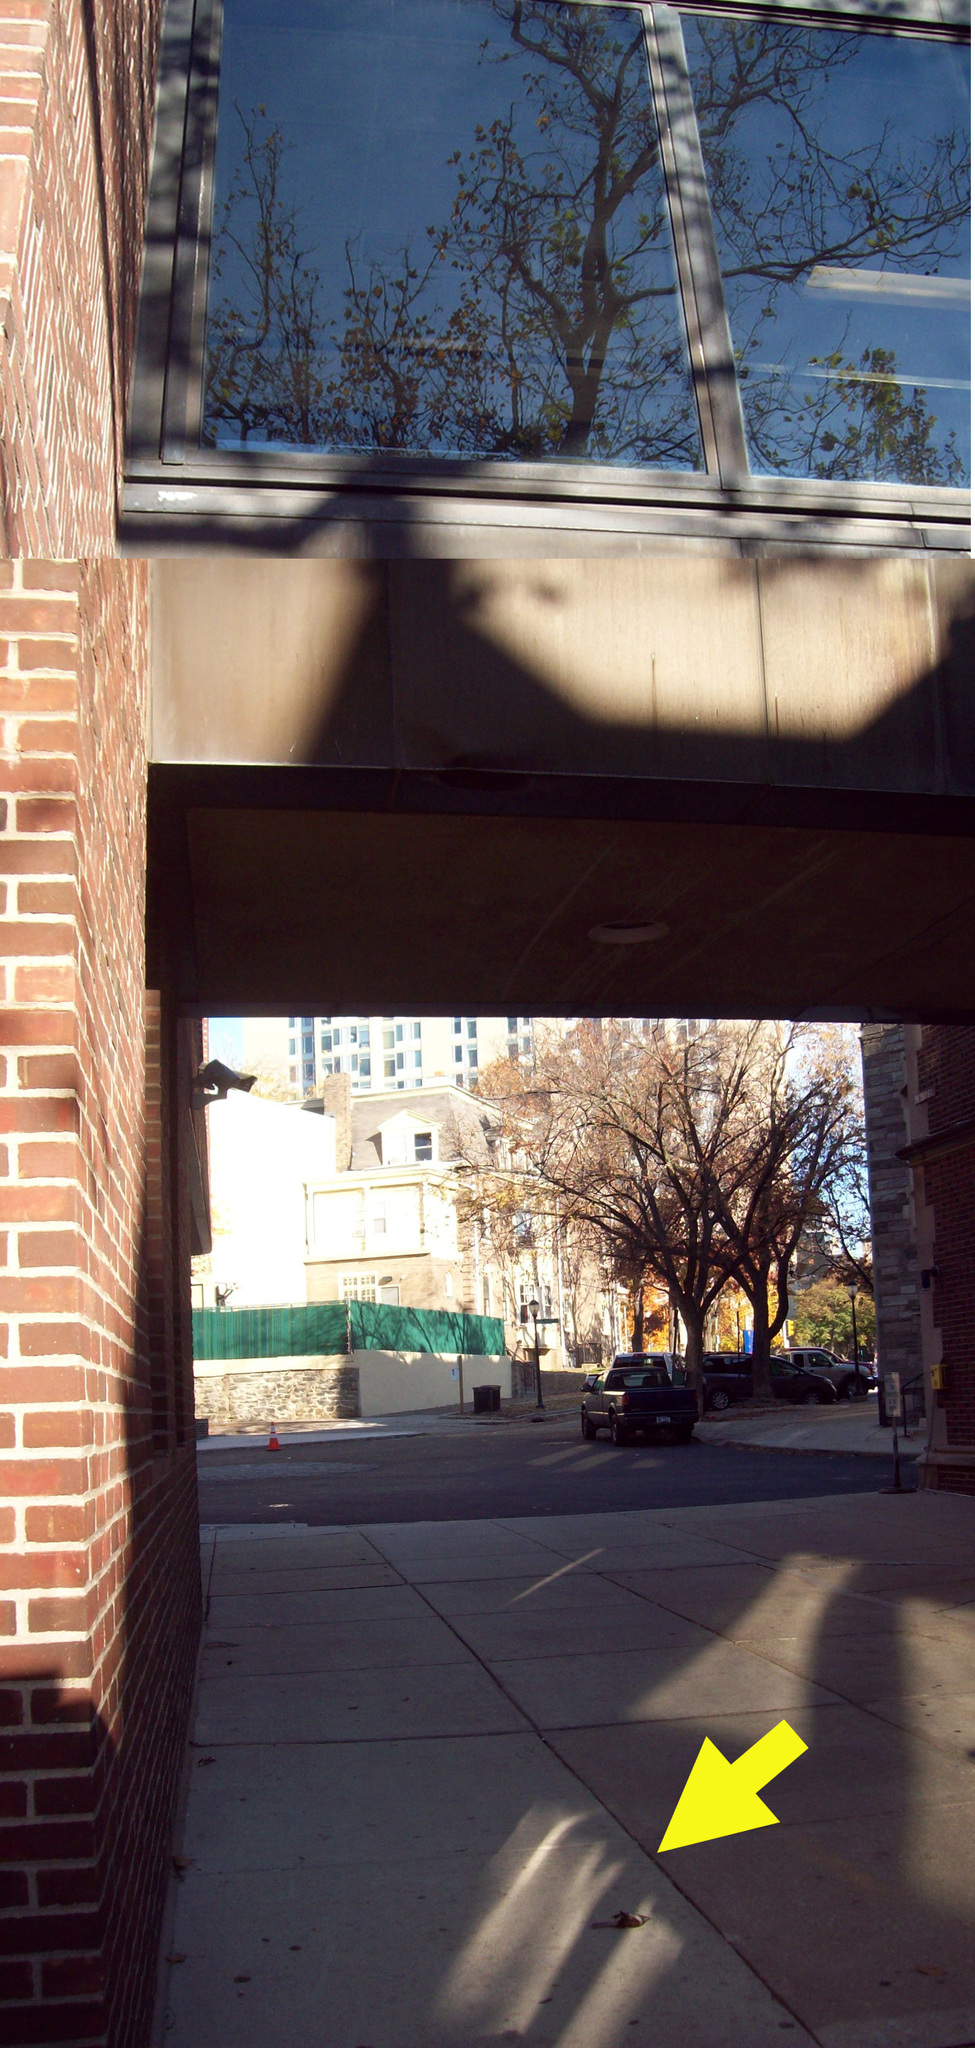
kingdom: Animalia
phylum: Chordata
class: Aves
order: Passeriformes
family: Passerellidae
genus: Zonotrichia
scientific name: Zonotrichia albicollis
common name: White-throated sparrow
